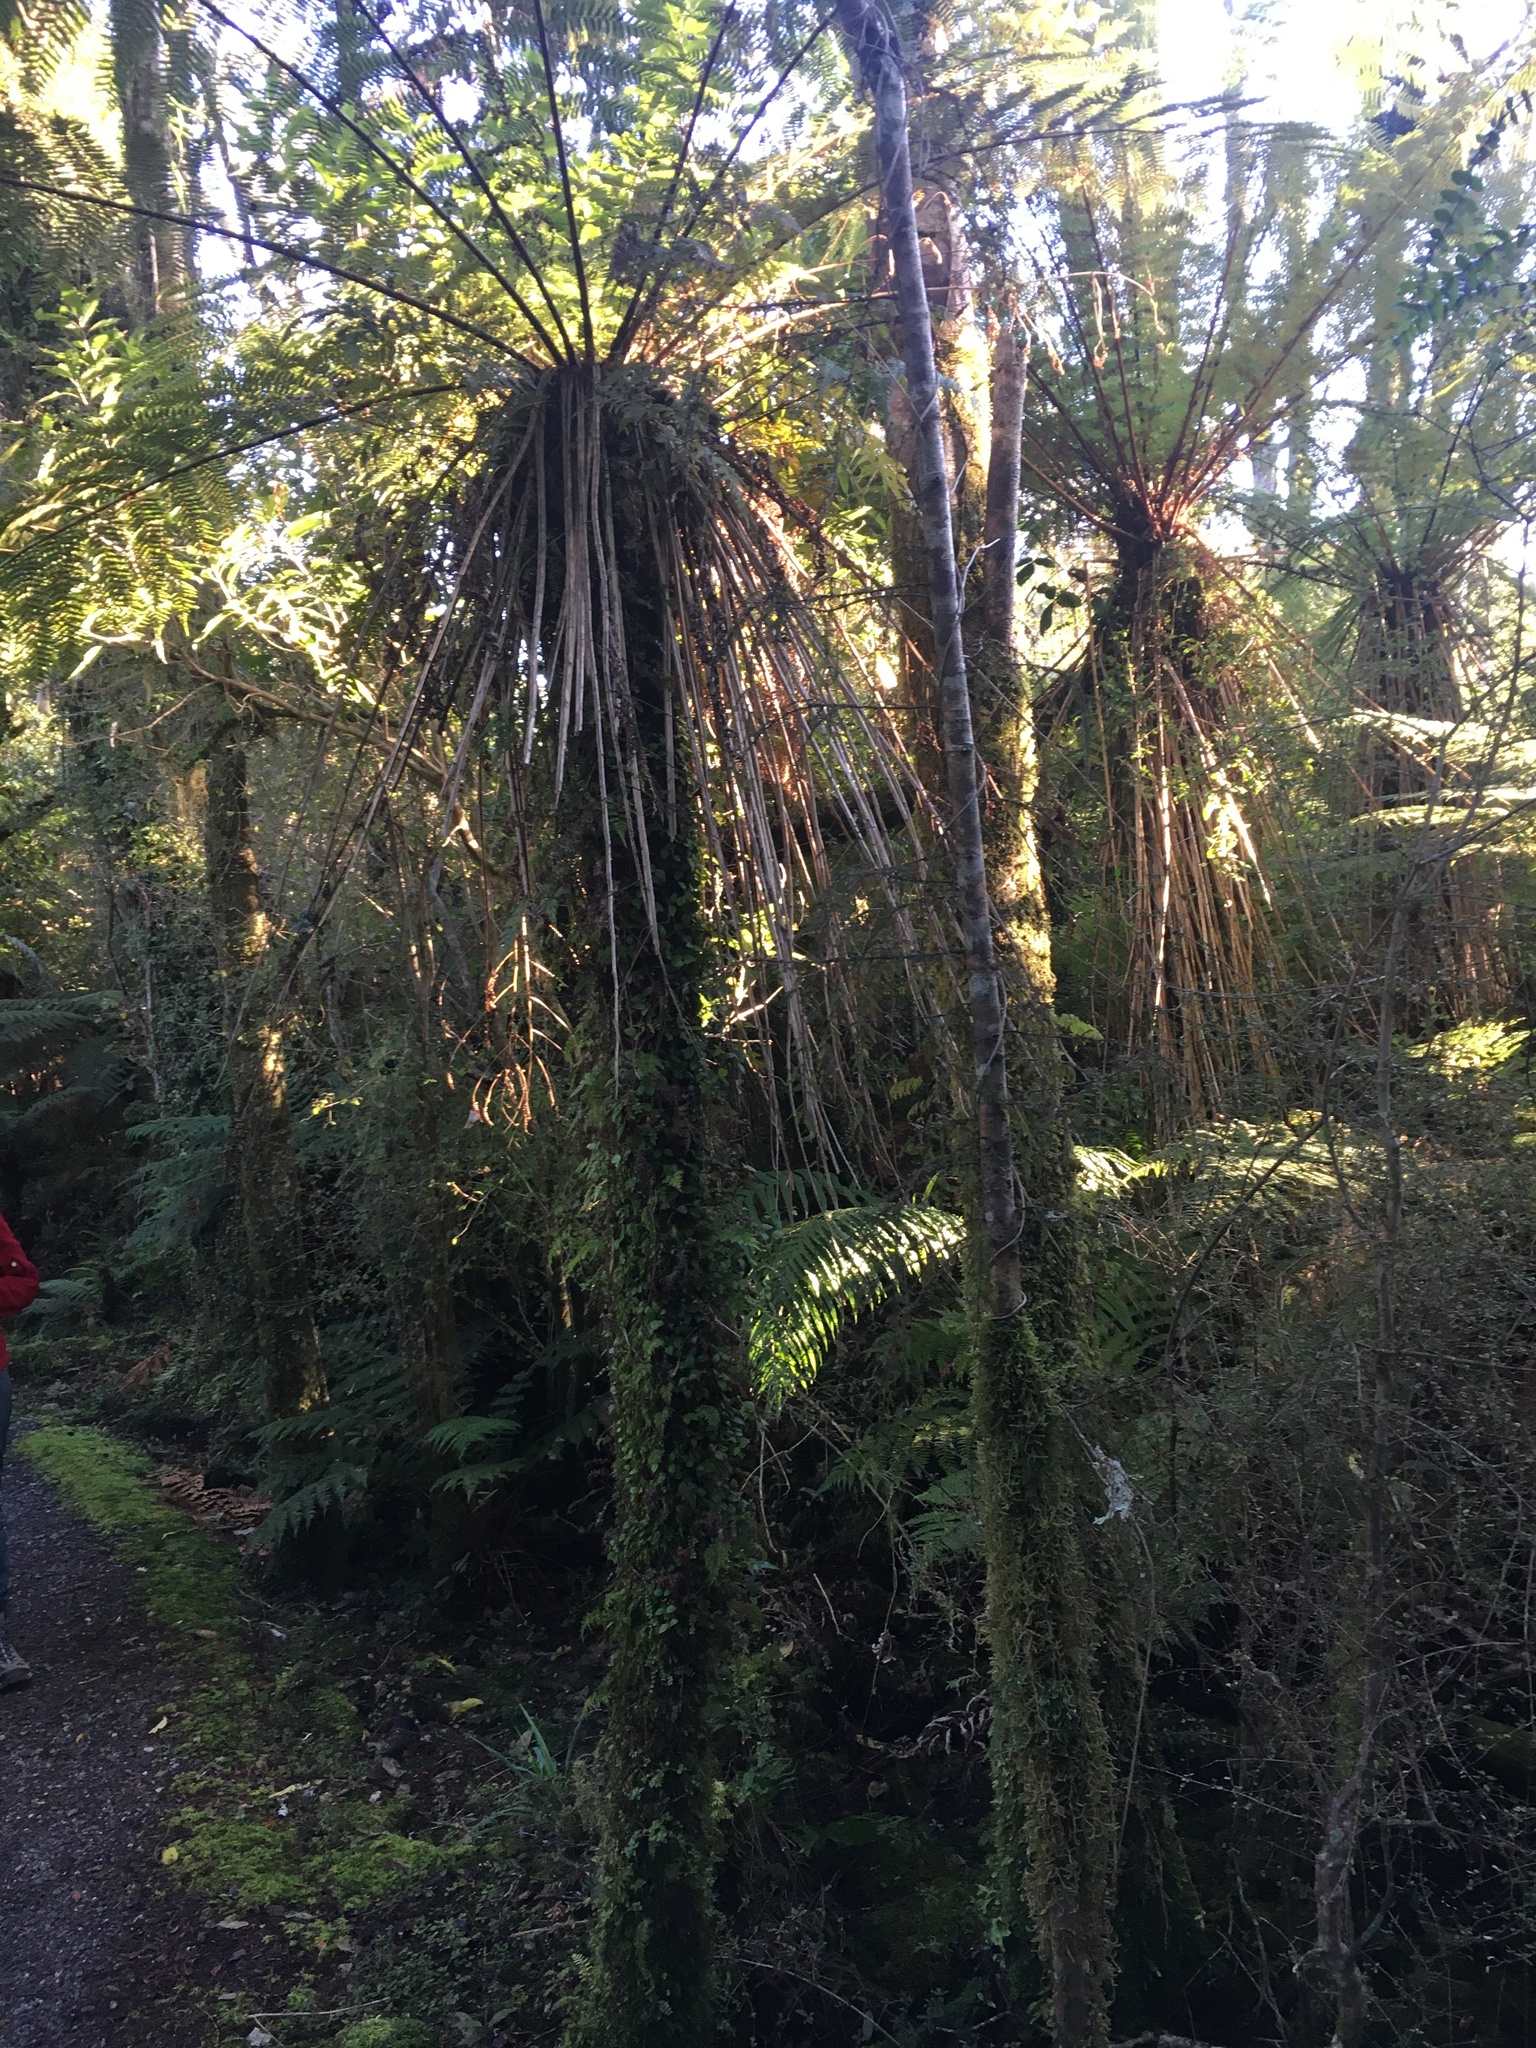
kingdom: Plantae
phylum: Tracheophyta
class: Polypodiopsida
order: Cyatheales
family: Cyatheaceae
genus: Alsophila
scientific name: Alsophila smithii
